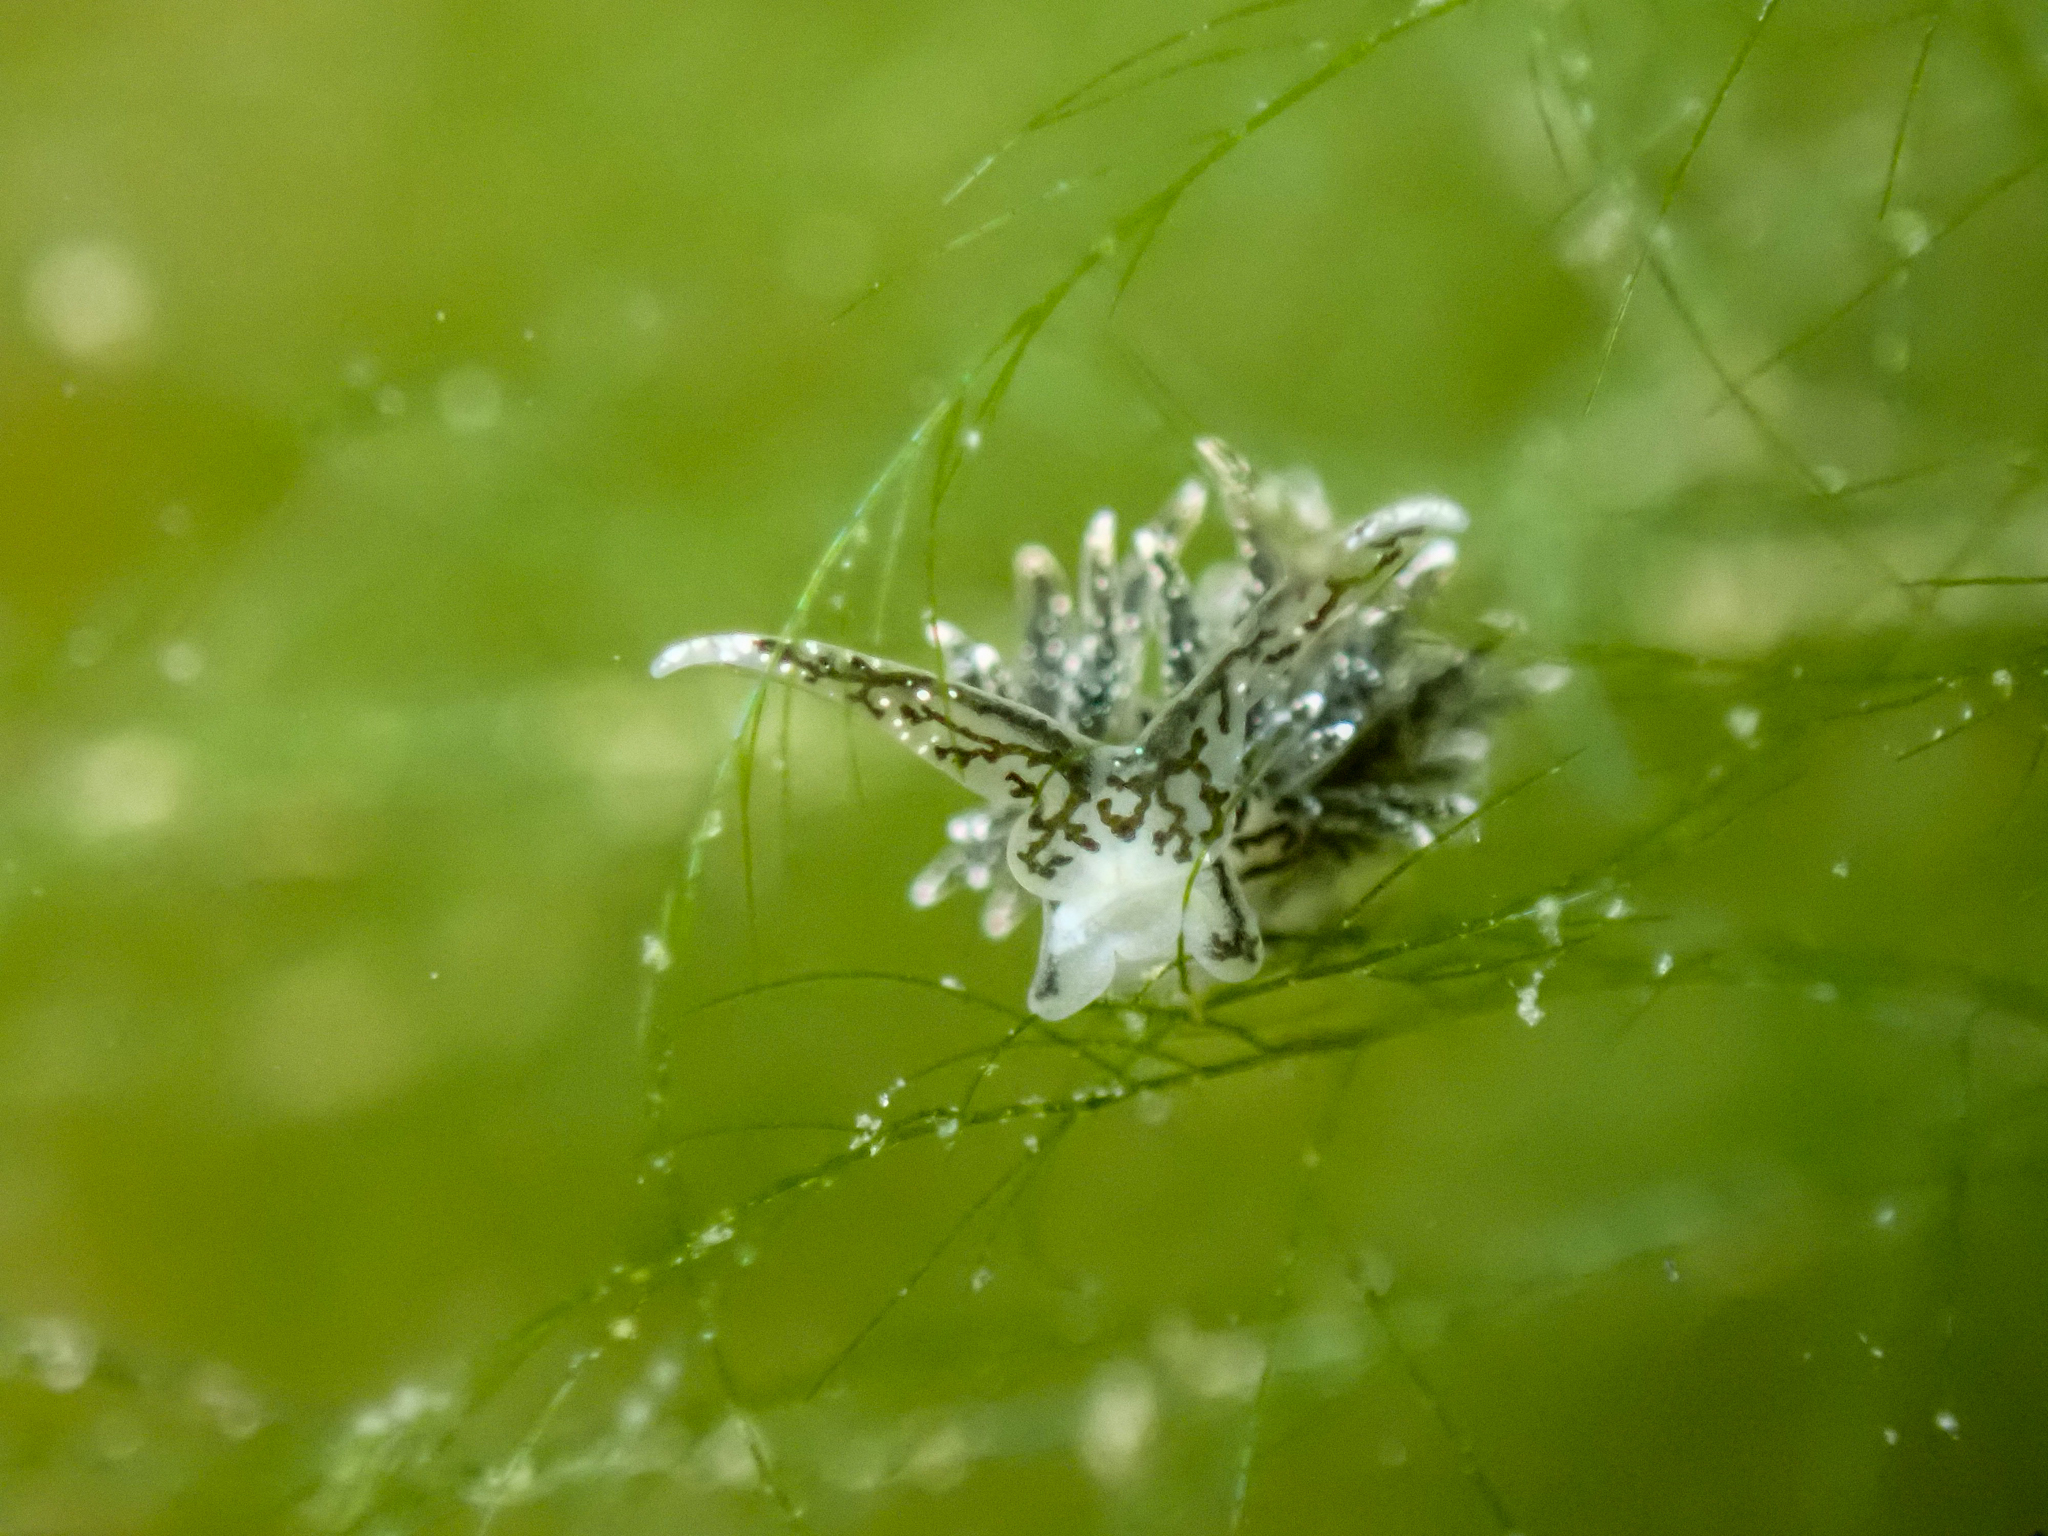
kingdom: Animalia
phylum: Mollusca
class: Gastropoda
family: Limapontiidae
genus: Placida
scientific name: Placida dendritica
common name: Dendritic nudibranch
